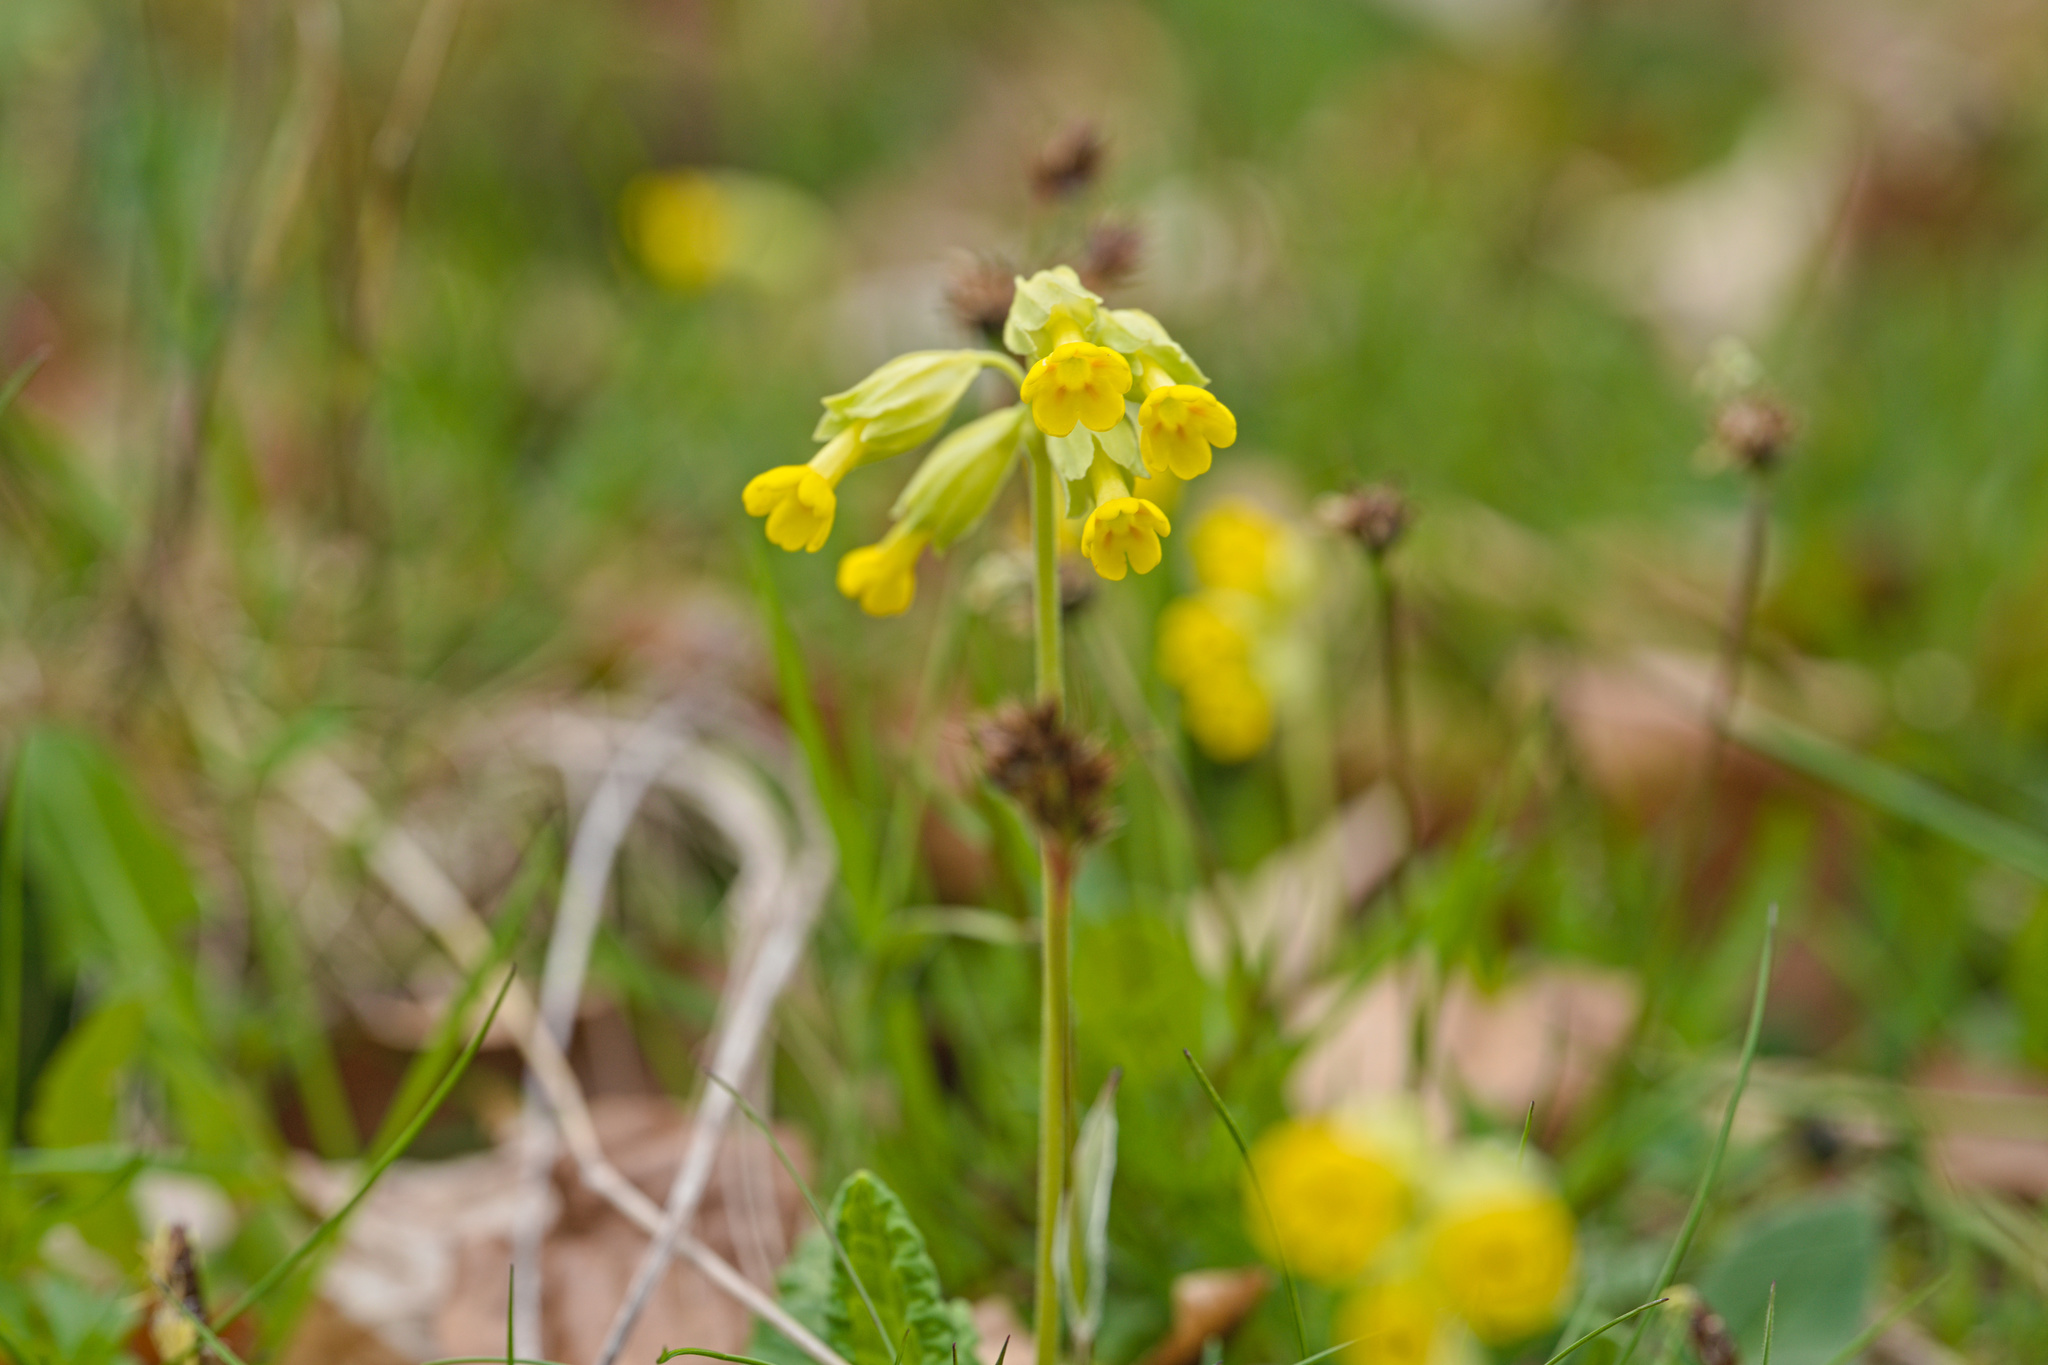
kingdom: Plantae
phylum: Tracheophyta
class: Magnoliopsida
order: Ericales
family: Primulaceae
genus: Primula
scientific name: Primula veris
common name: Cowslip
